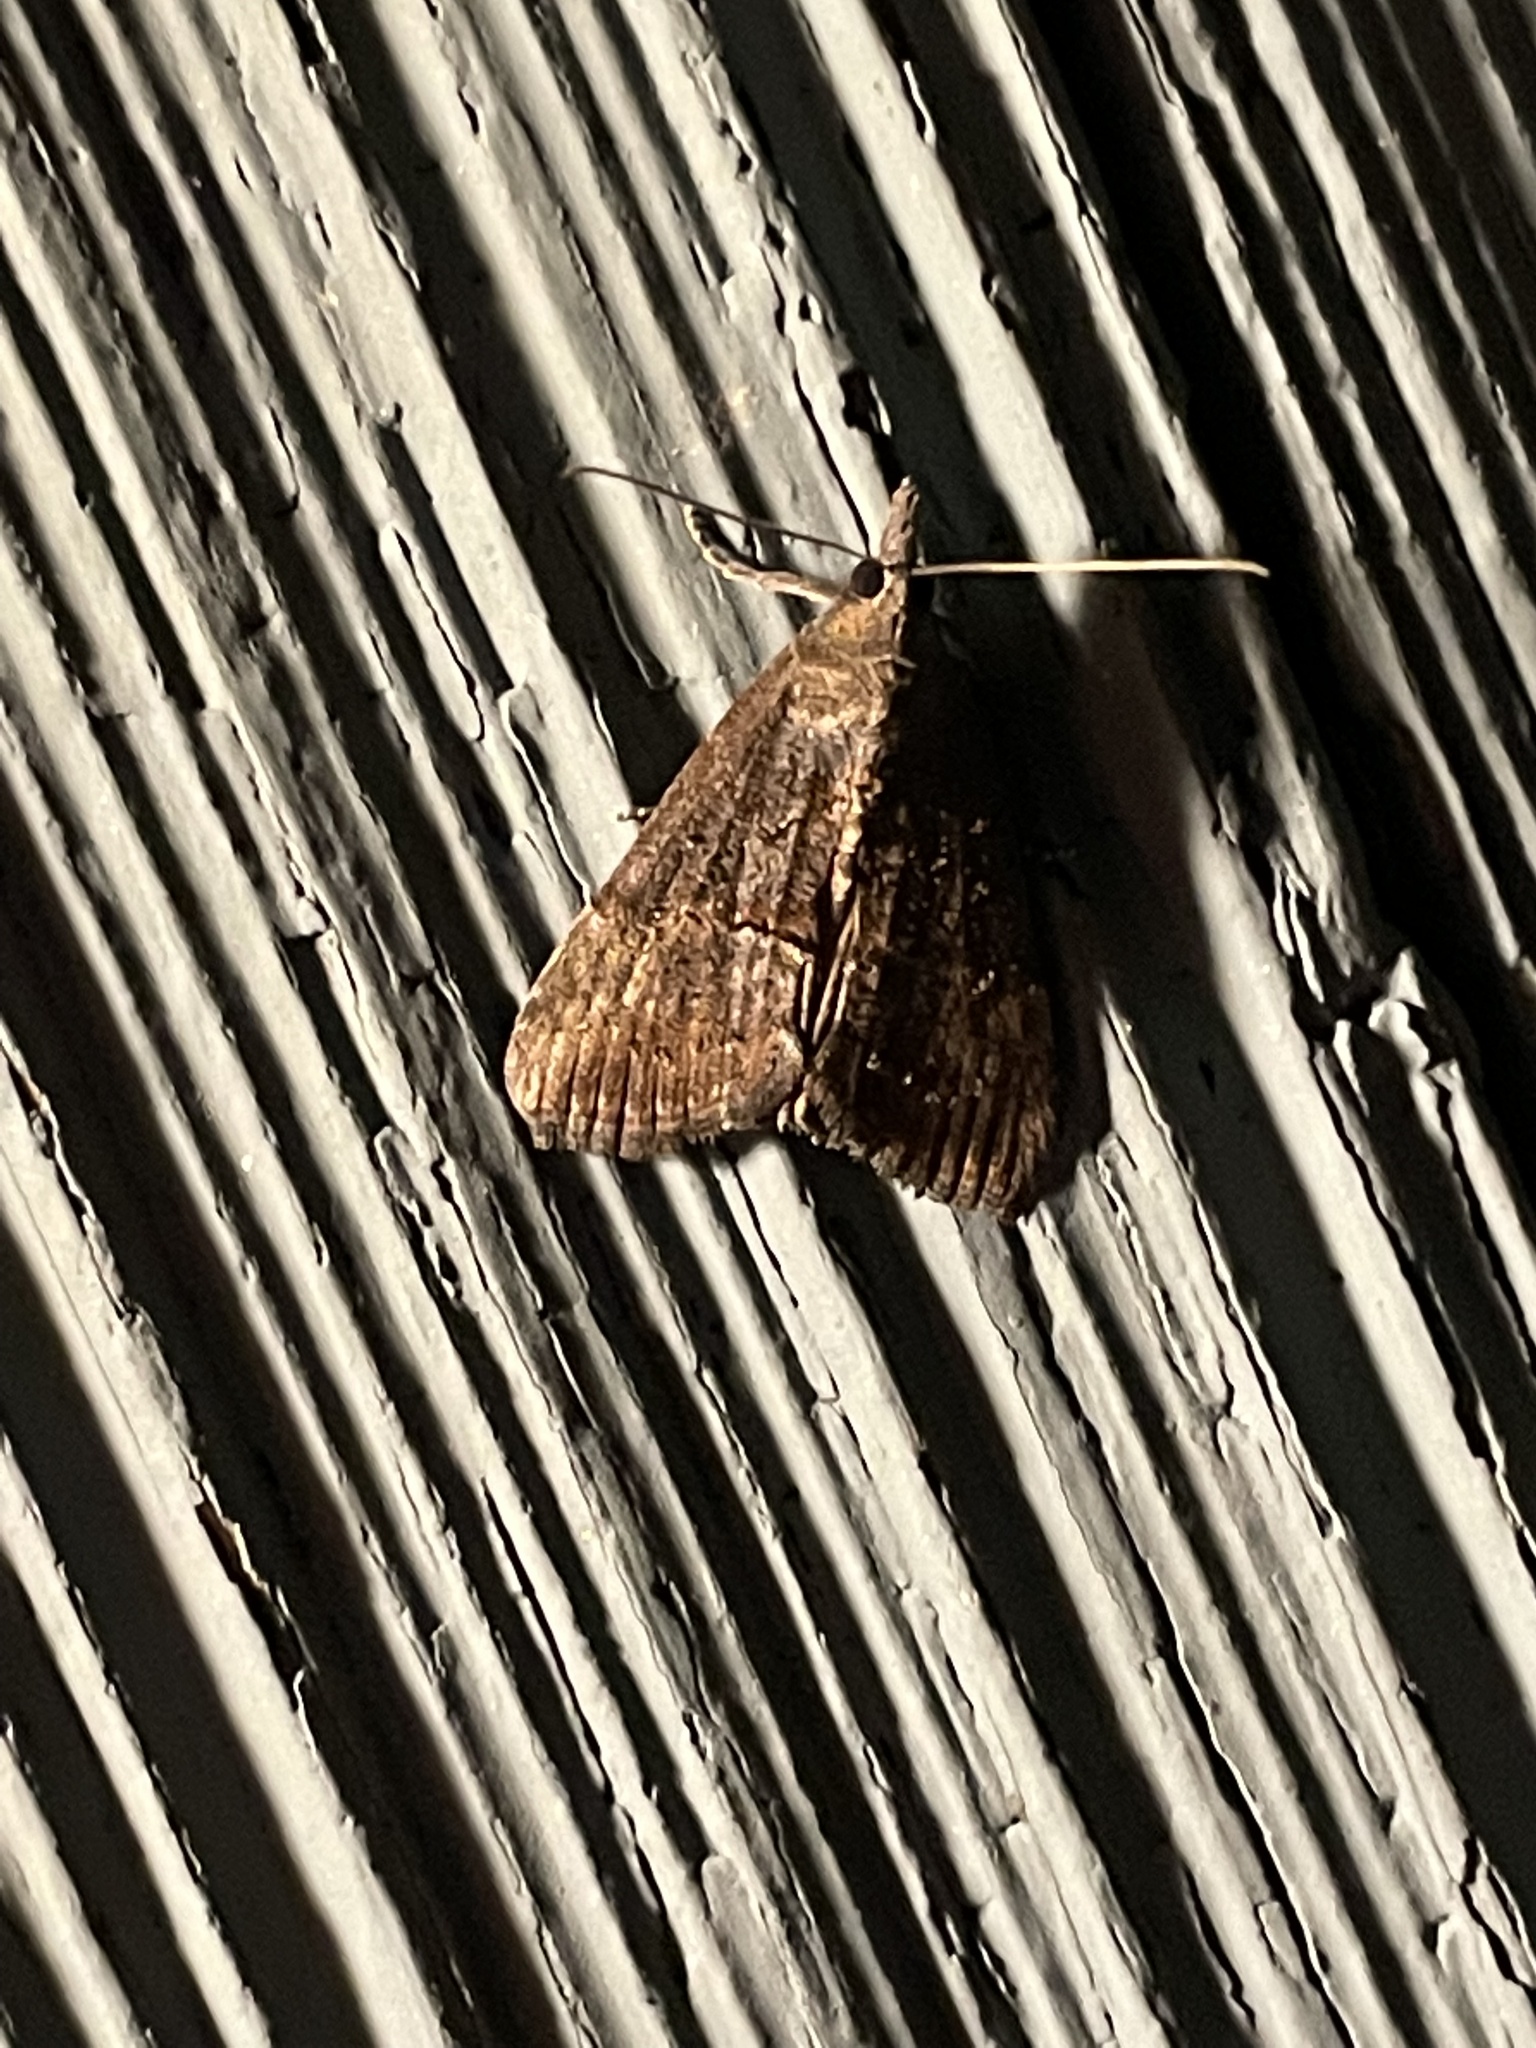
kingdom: Animalia
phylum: Arthropoda
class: Insecta
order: Lepidoptera
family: Erebidae
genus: Hypena
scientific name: Hypena scabra
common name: Green cloverworm
